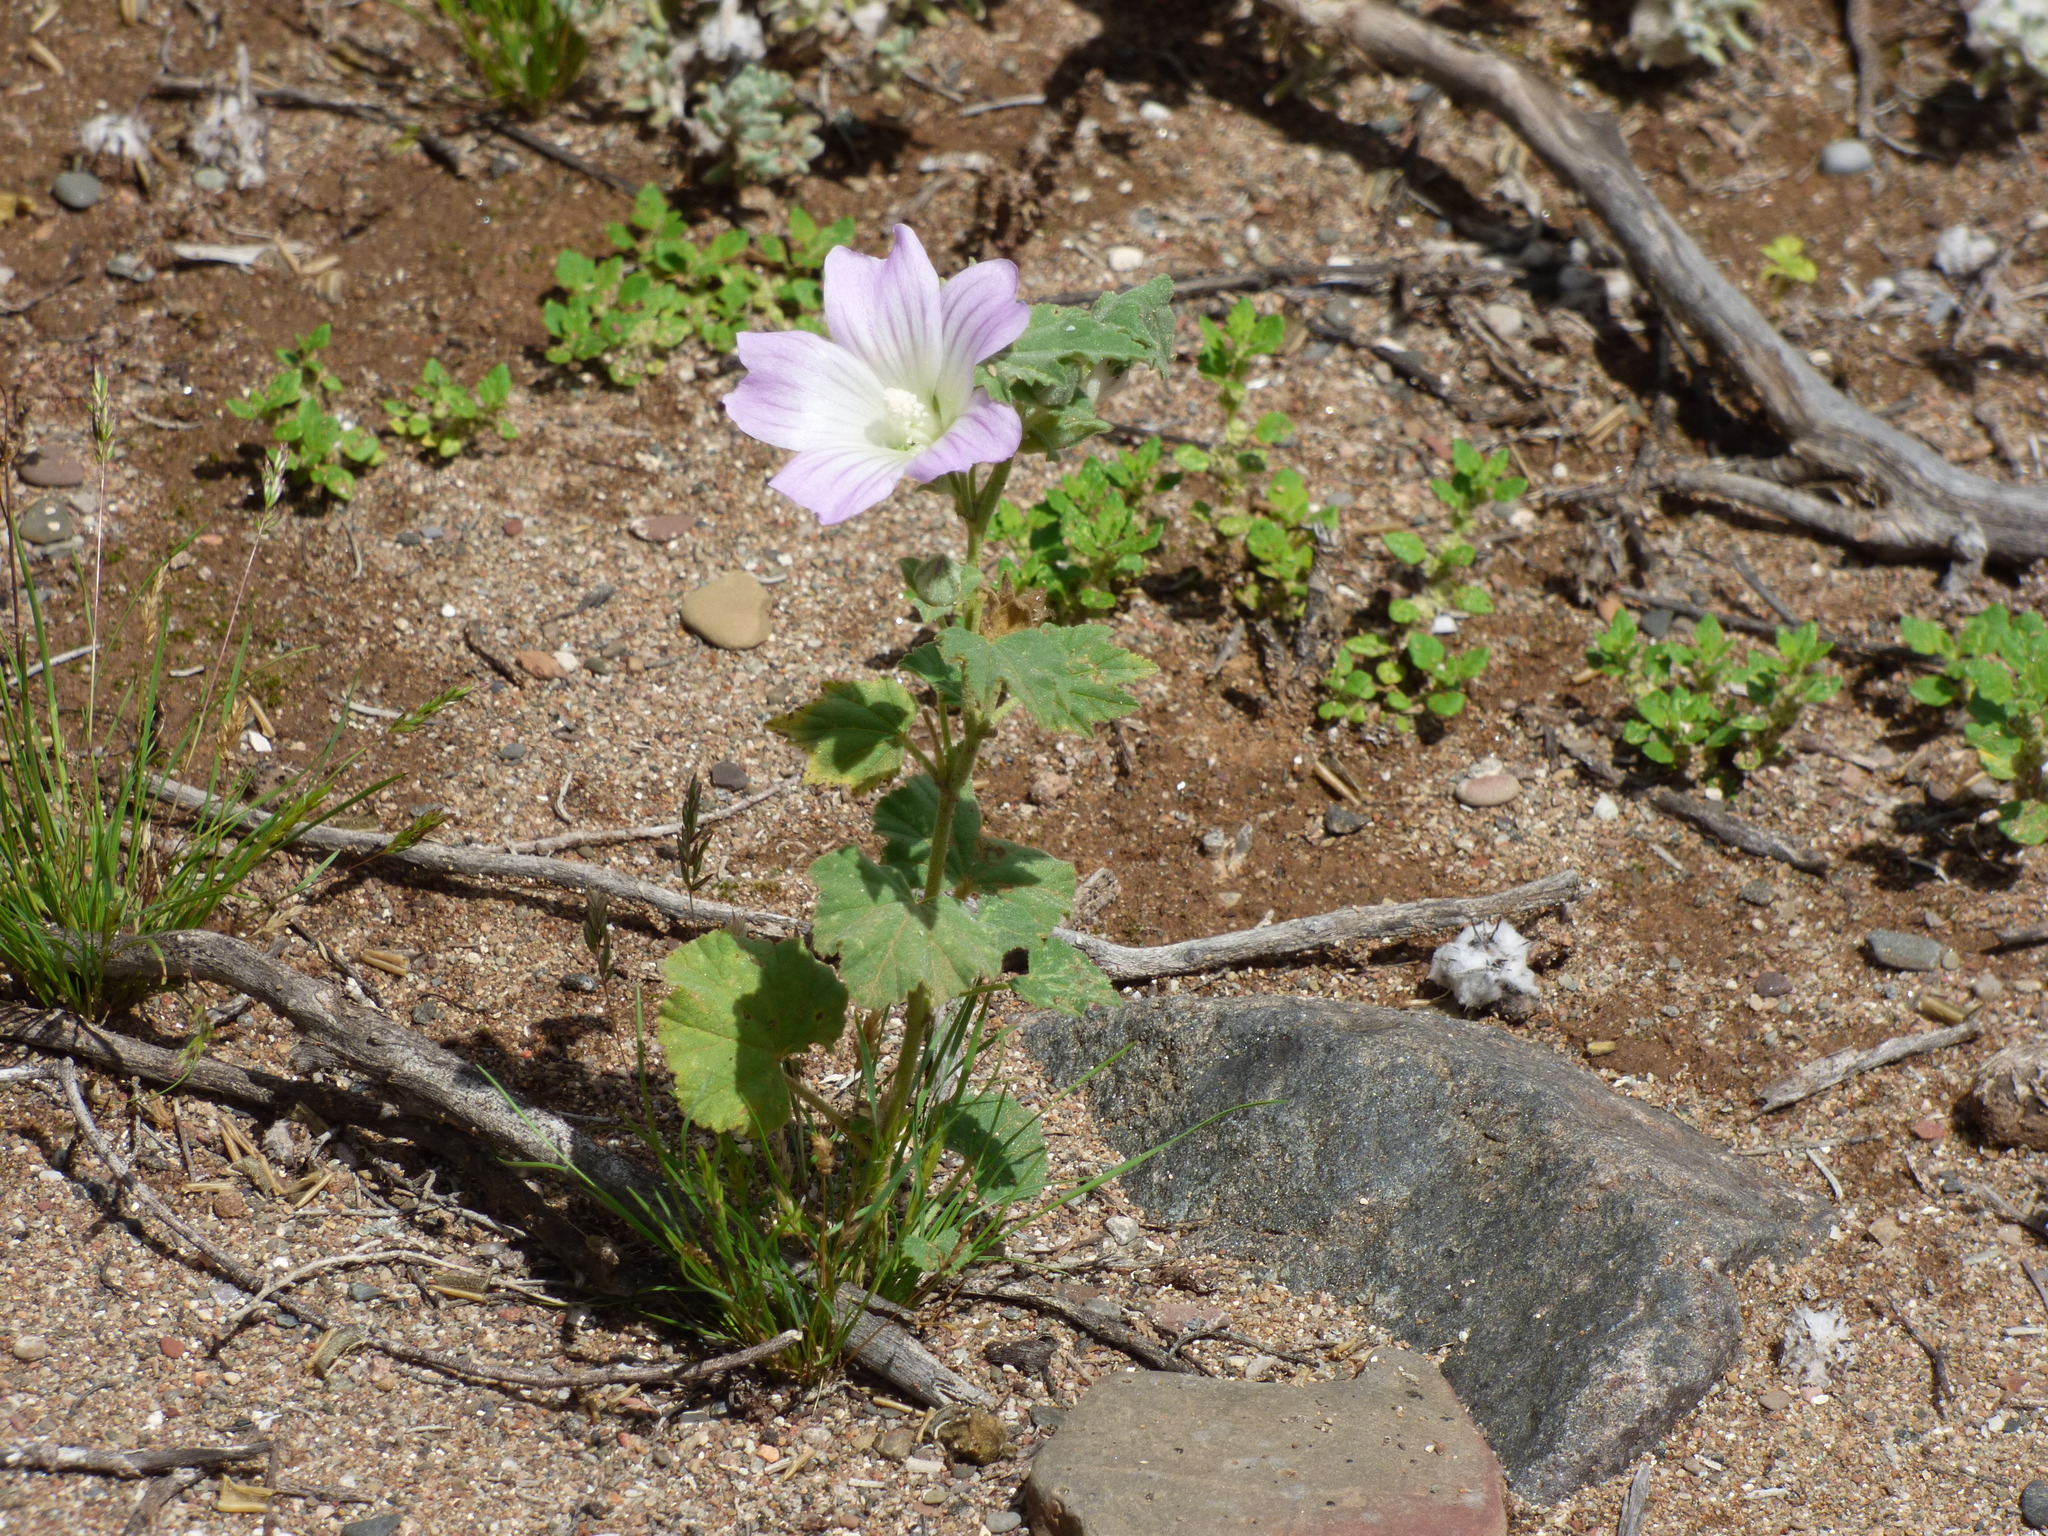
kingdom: Plantae
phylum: Tracheophyta
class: Magnoliopsida
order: Malvales
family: Malvaceae
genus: Malva
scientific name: Malva weinmanniana
